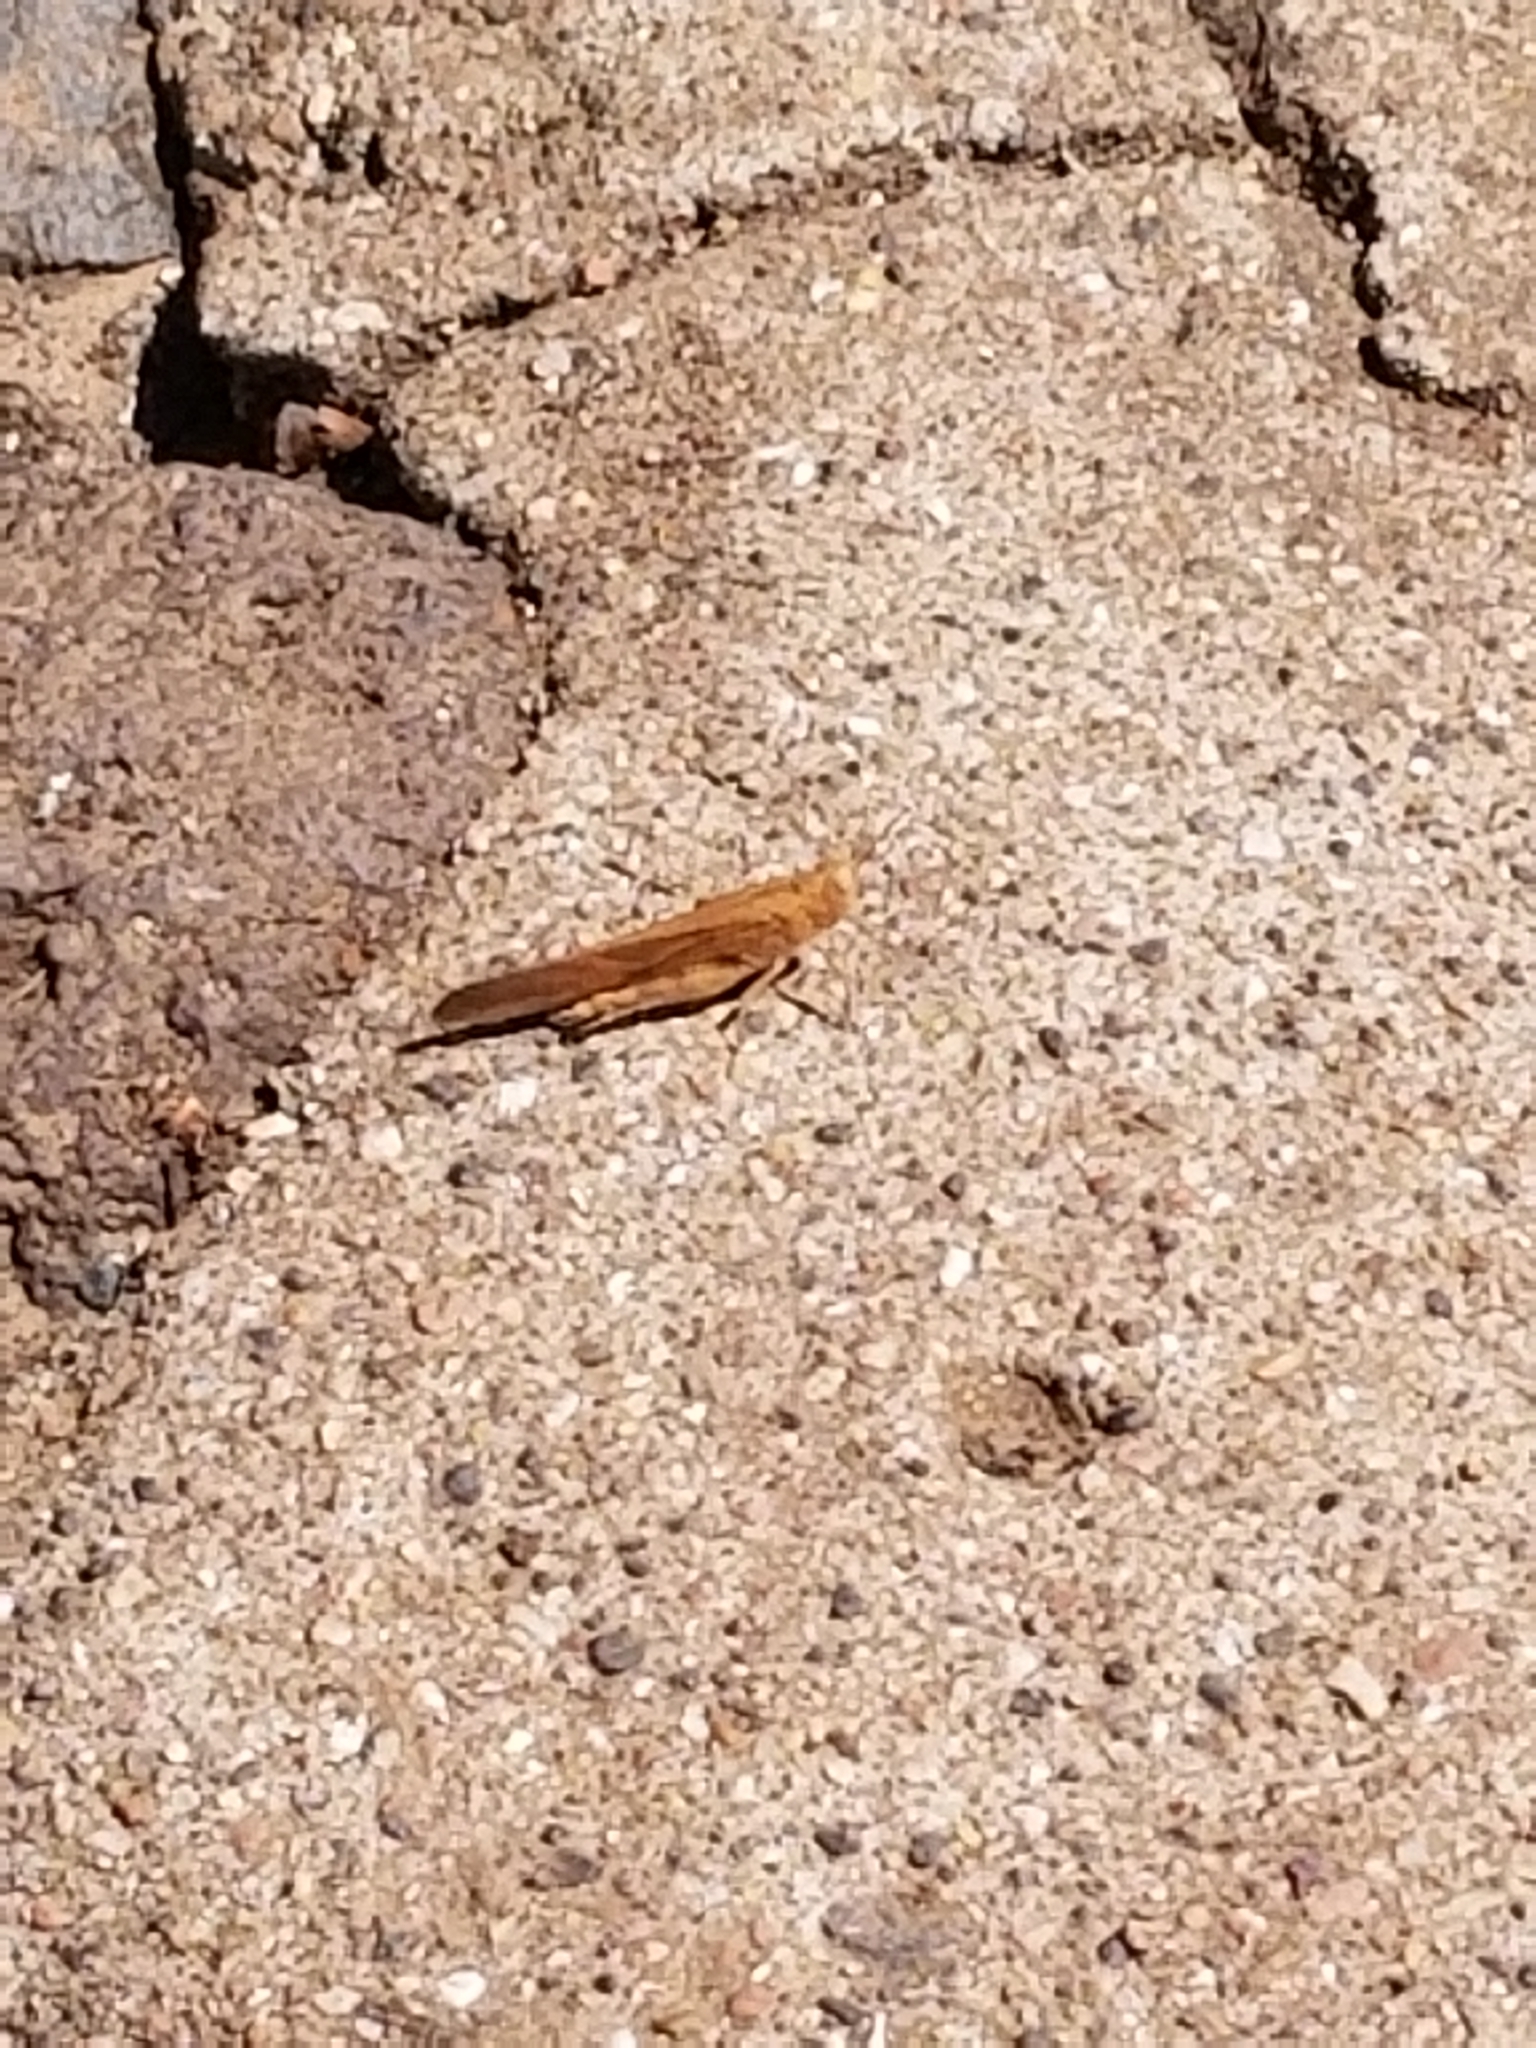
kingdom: Animalia
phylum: Arthropoda
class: Insecta
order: Orthoptera
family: Acrididae
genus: Dissosteira
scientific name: Dissosteira carolina
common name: Carolina grasshopper
